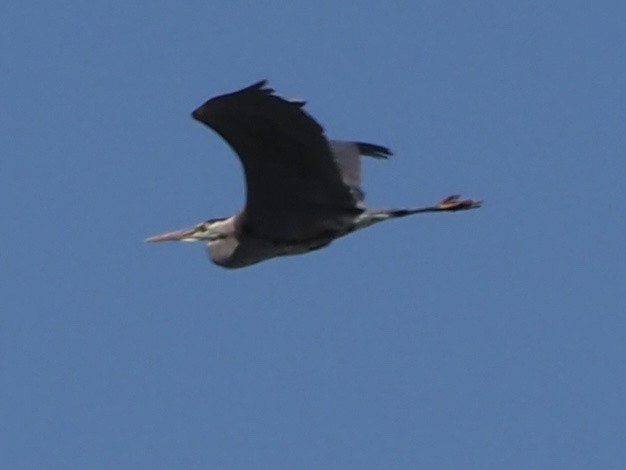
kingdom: Animalia
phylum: Chordata
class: Aves
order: Pelecaniformes
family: Ardeidae
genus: Ardea
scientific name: Ardea herodias
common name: Great blue heron
